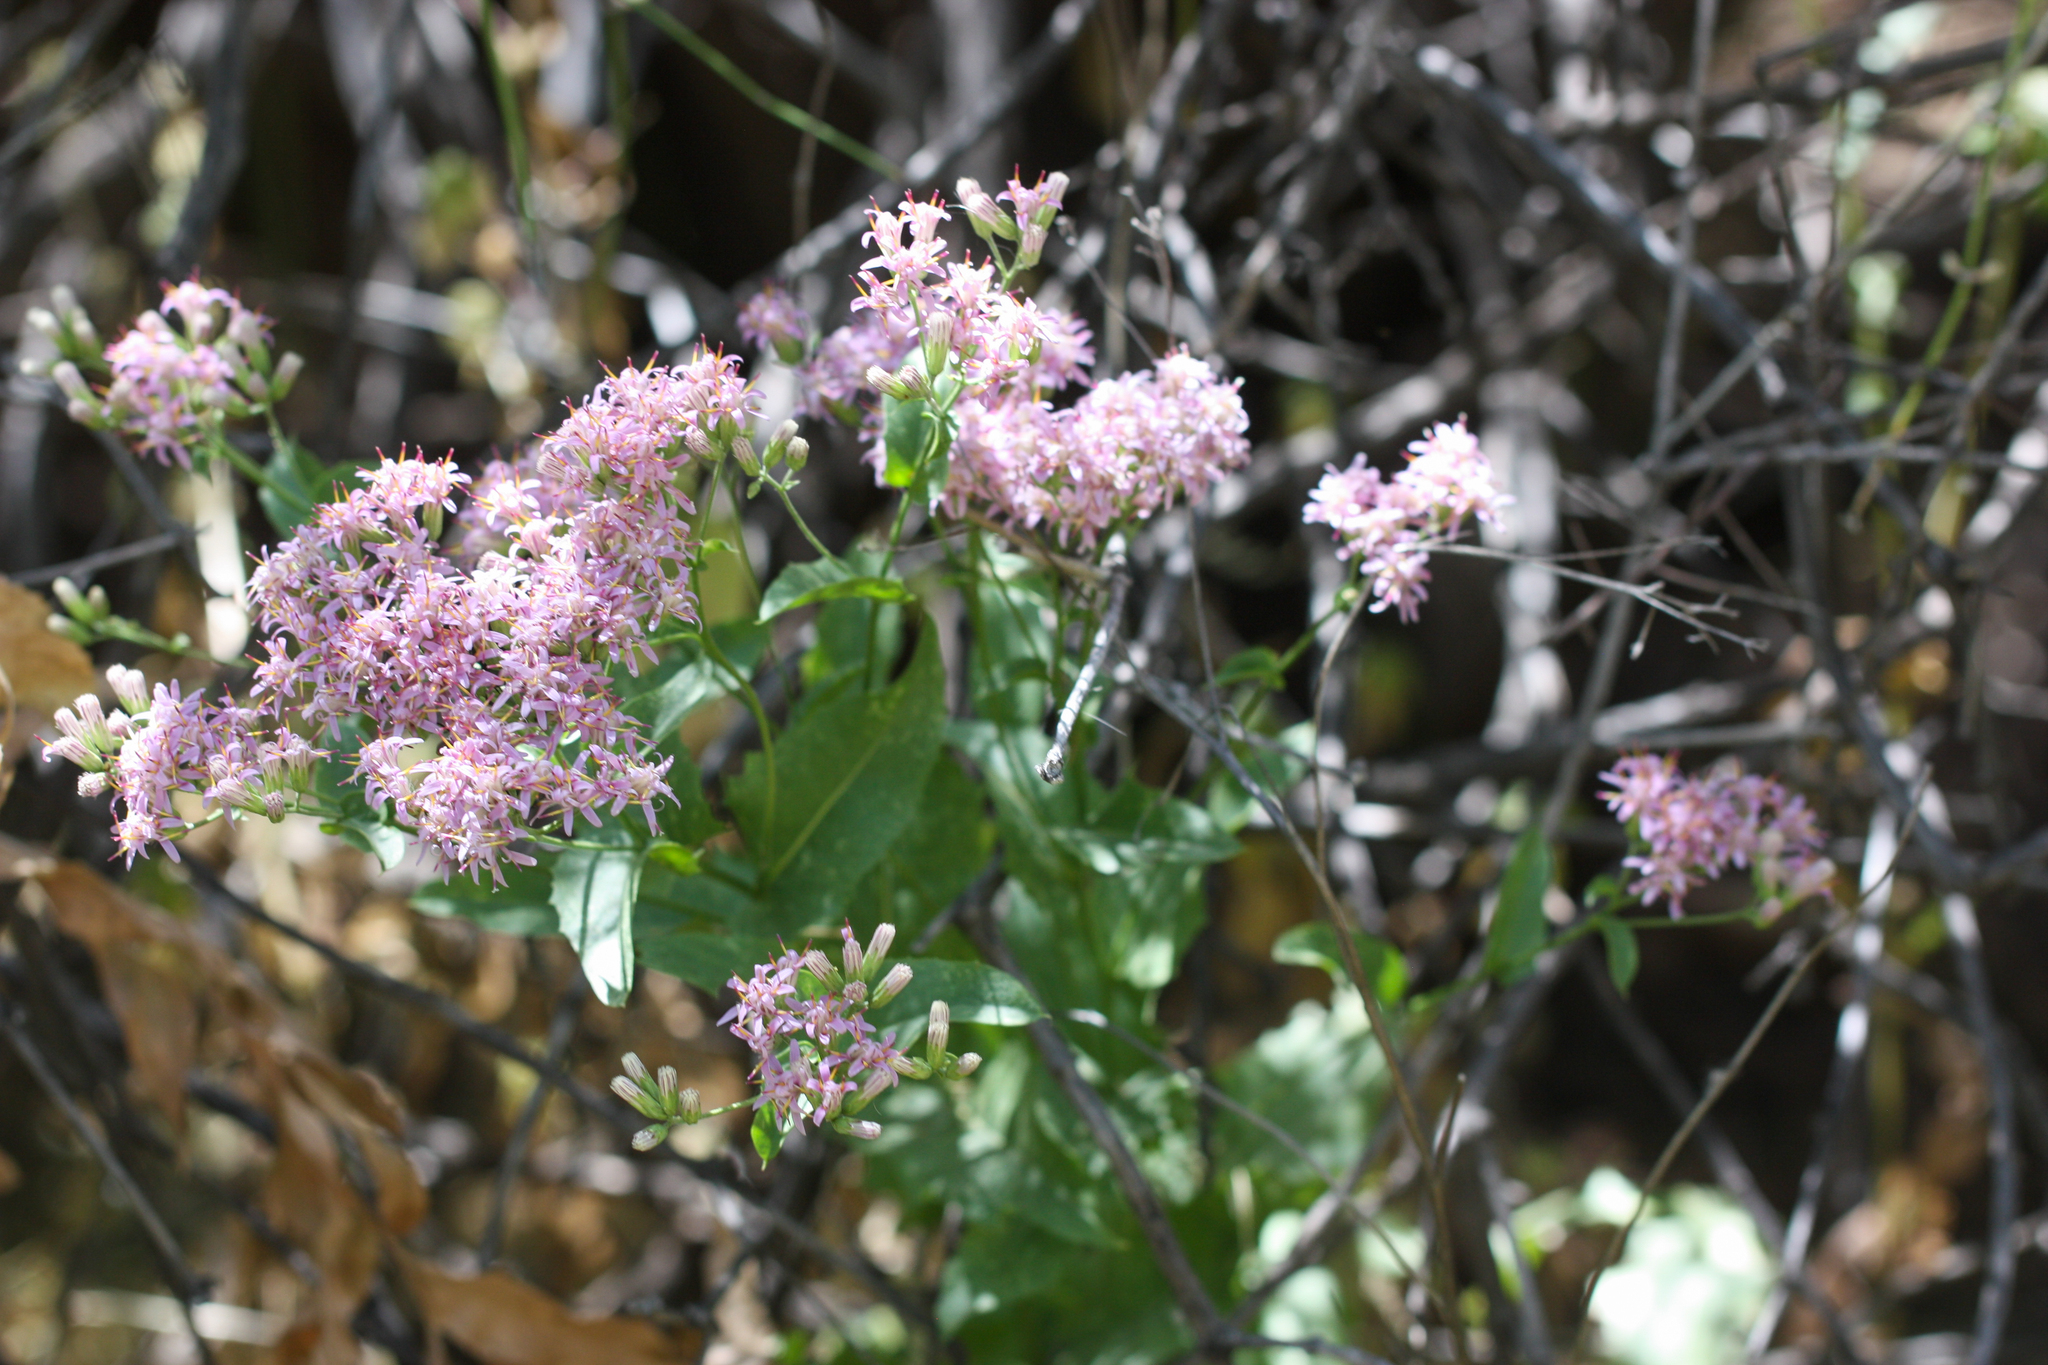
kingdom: Plantae
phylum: Tracheophyta
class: Magnoliopsida
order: Asterales
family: Asteraceae
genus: Acourtia
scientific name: Acourtia wrightii
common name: Brownfoot
